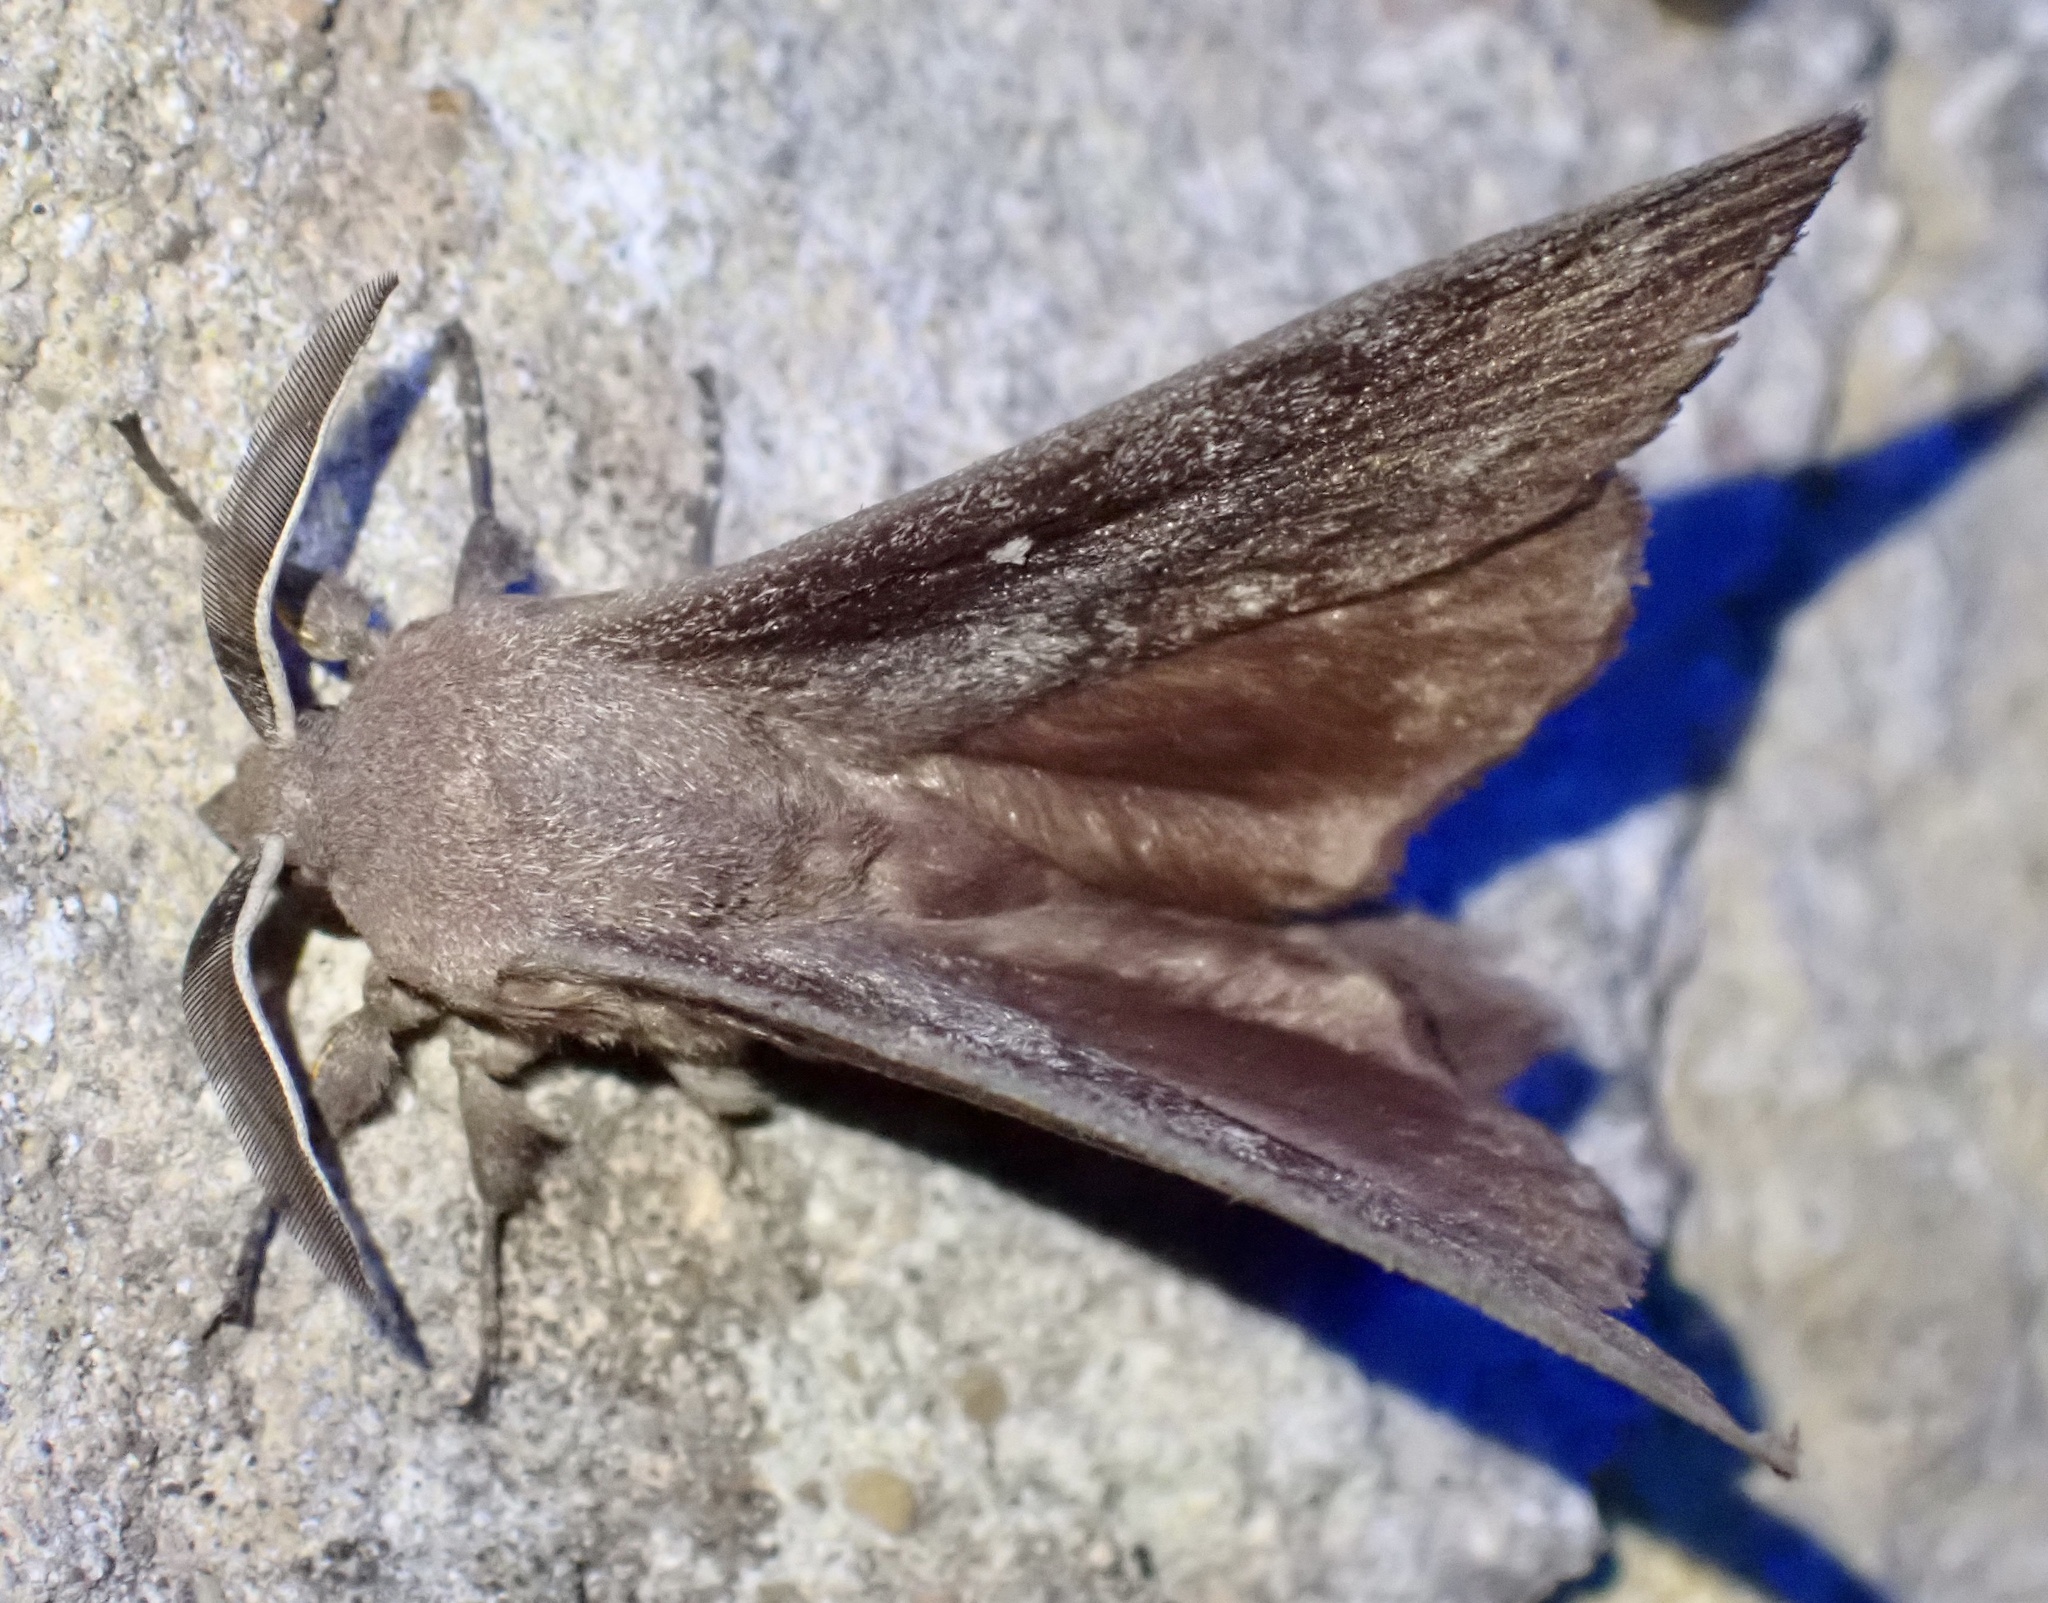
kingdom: Animalia
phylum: Arthropoda
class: Insecta
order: Lepidoptera
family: Lasiocampidae
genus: Dendrolimus
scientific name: Dendrolimus pini
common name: Pine-tree lappet
